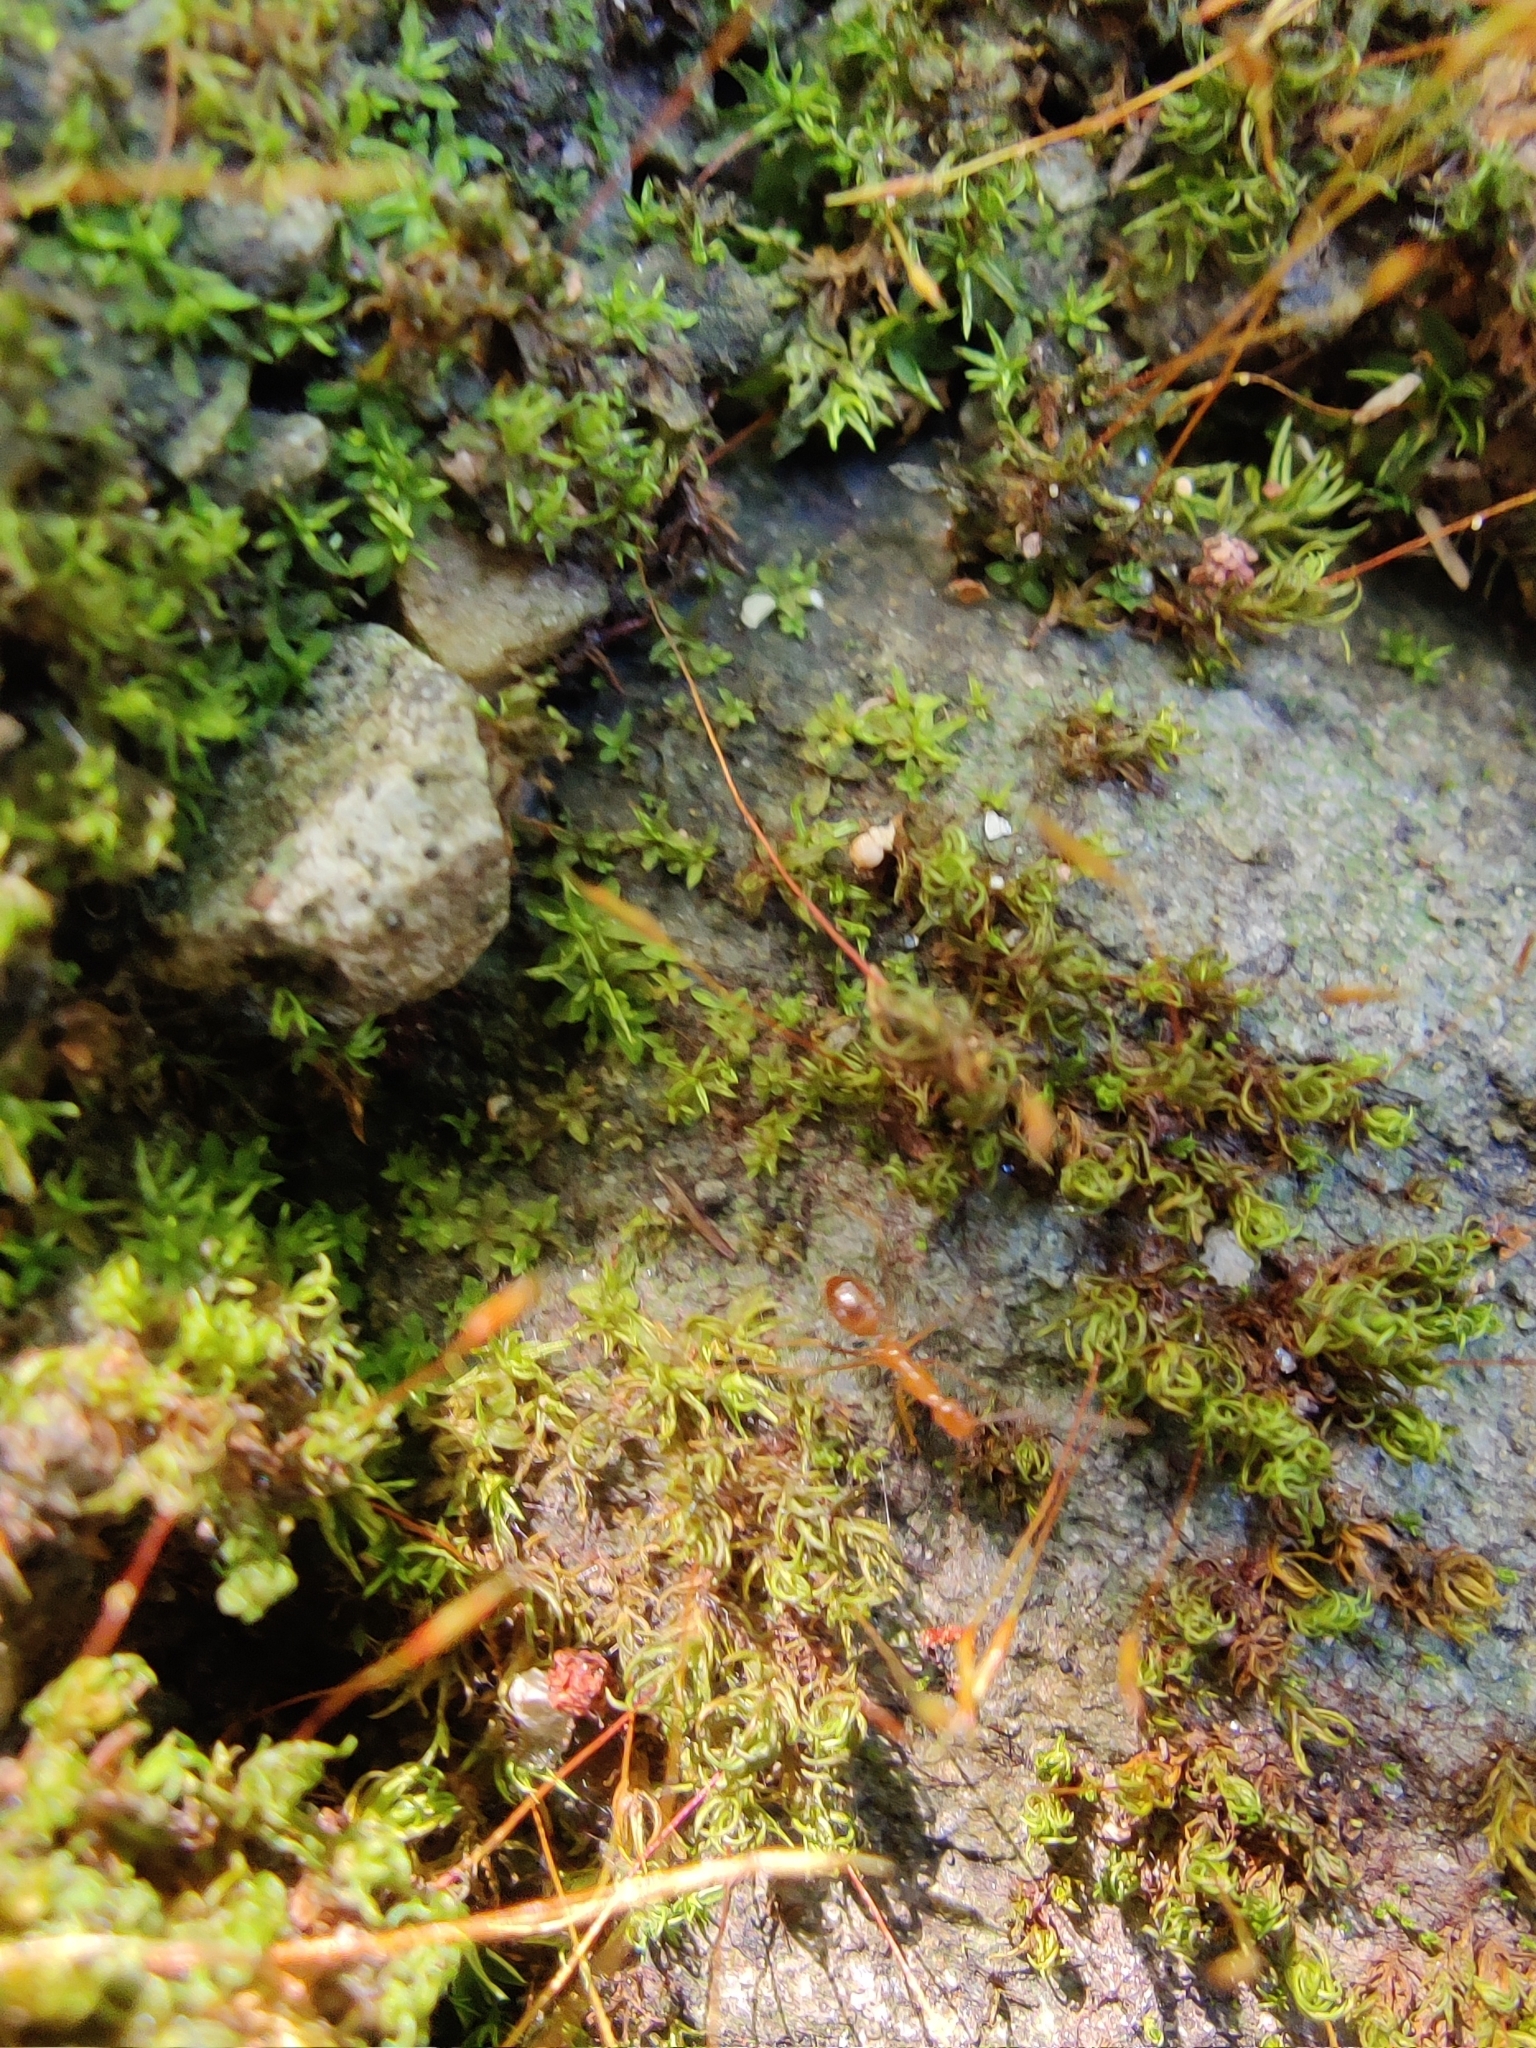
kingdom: Animalia
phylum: Arthropoda
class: Insecta
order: Hymenoptera
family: Formicidae
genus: Anoplolepis
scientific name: Anoplolepis gracilipes
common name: Ant
